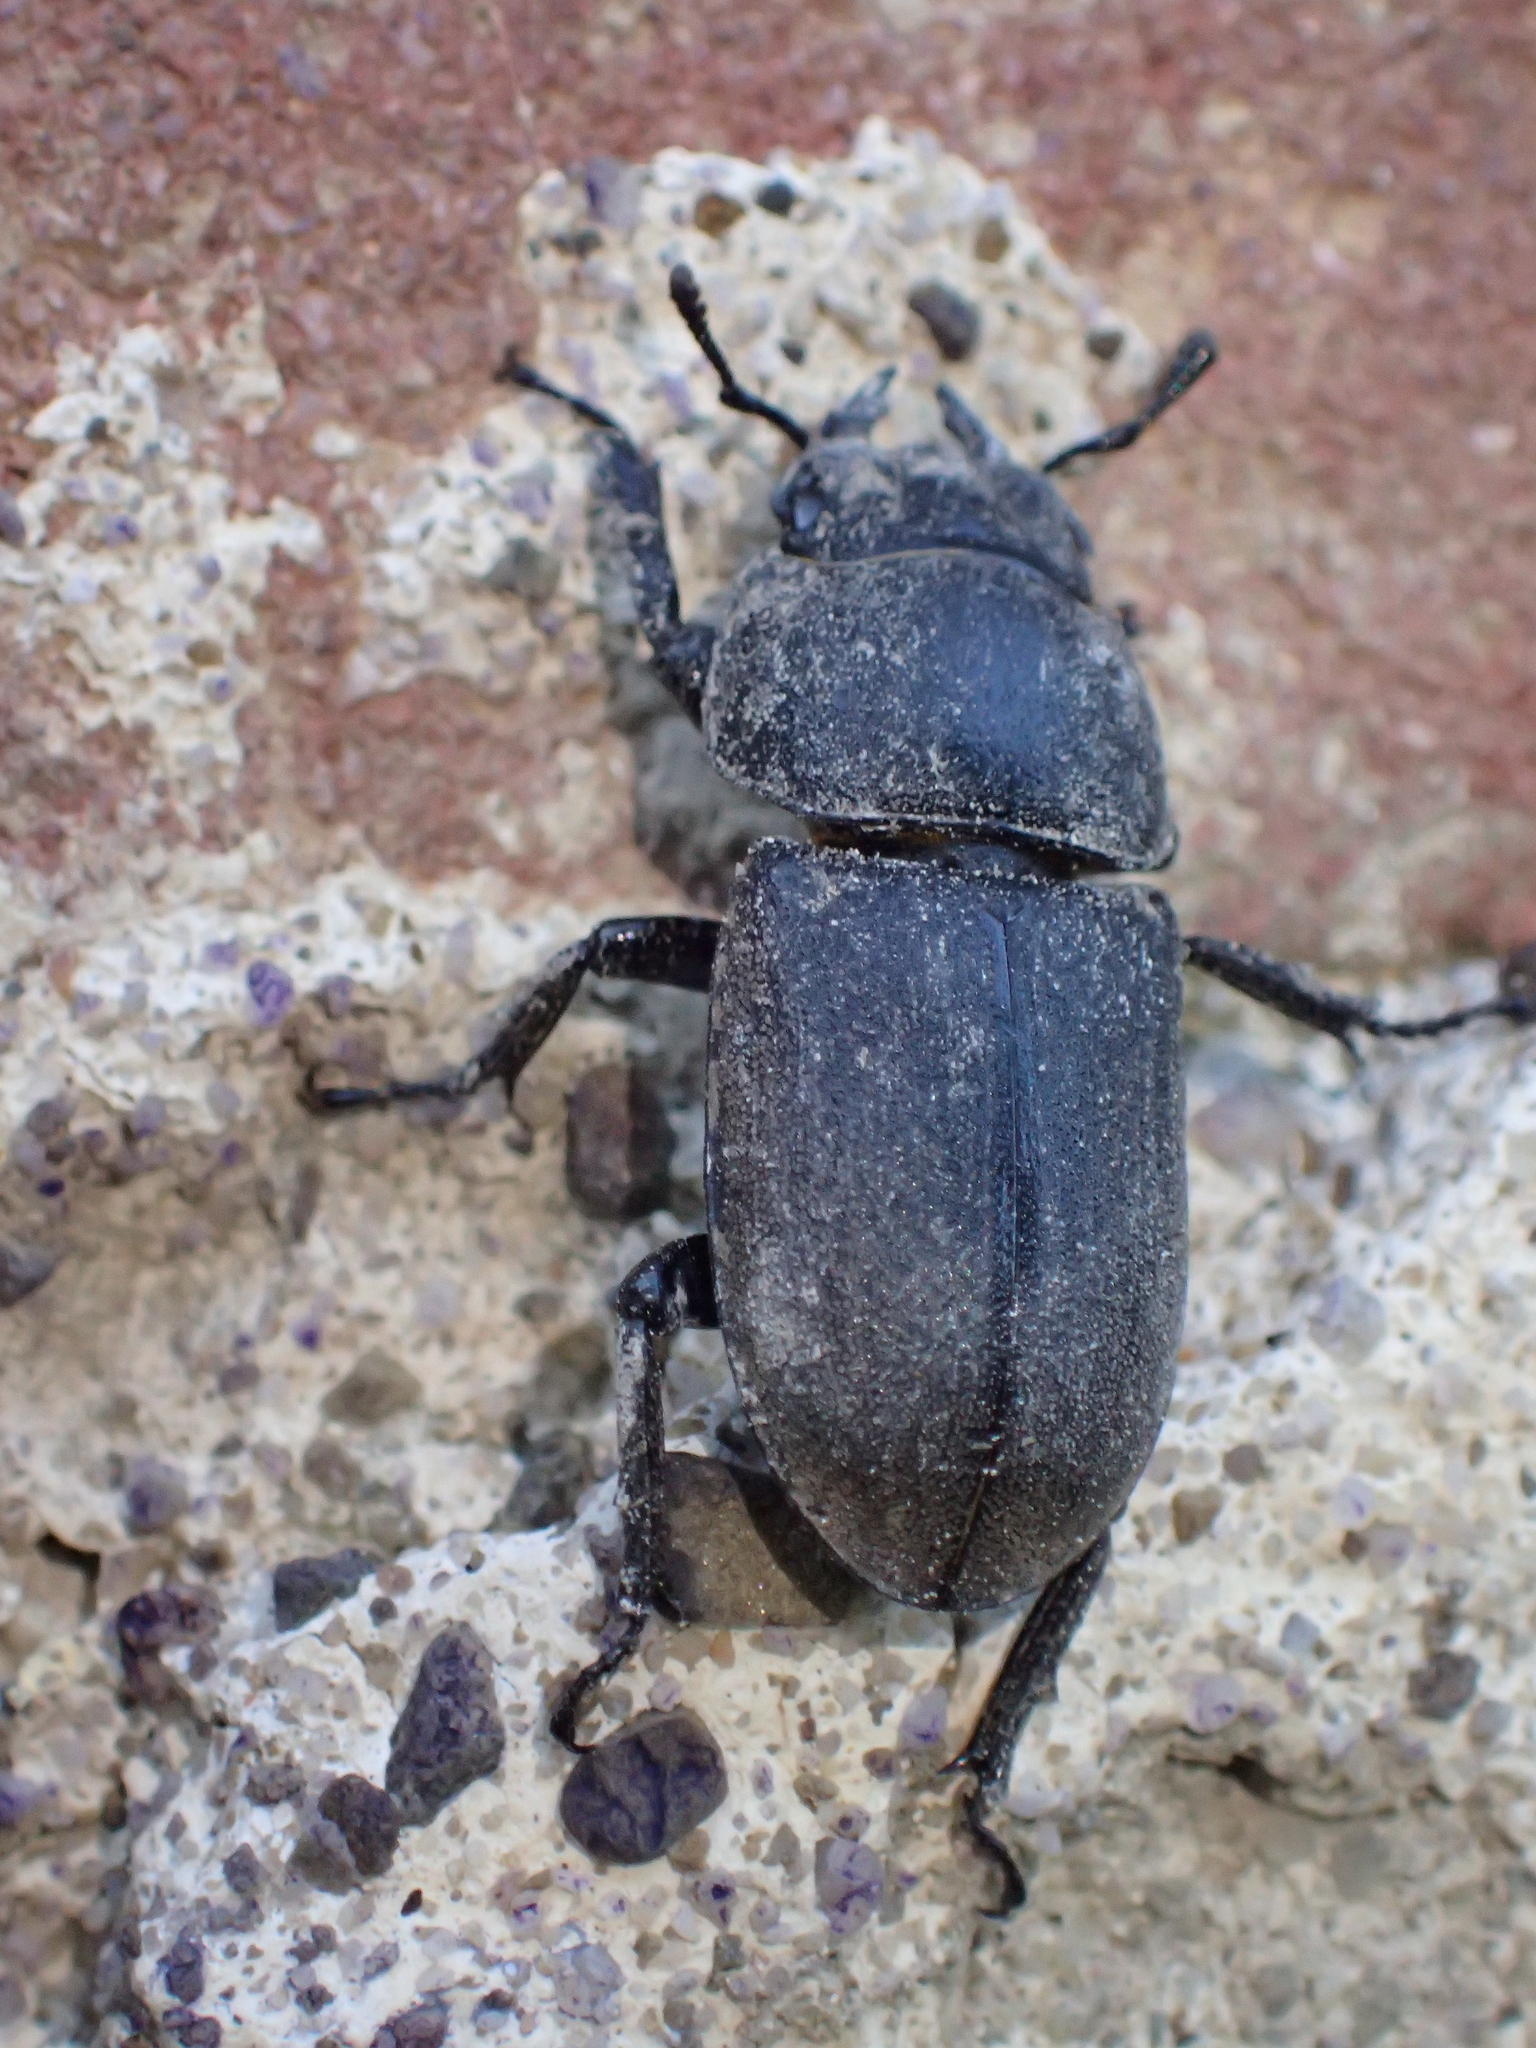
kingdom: Animalia
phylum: Arthropoda
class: Insecta
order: Coleoptera
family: Lucanidae
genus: Dorcus
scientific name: Dorcus parallelipipedus
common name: Lesser stag beetle
